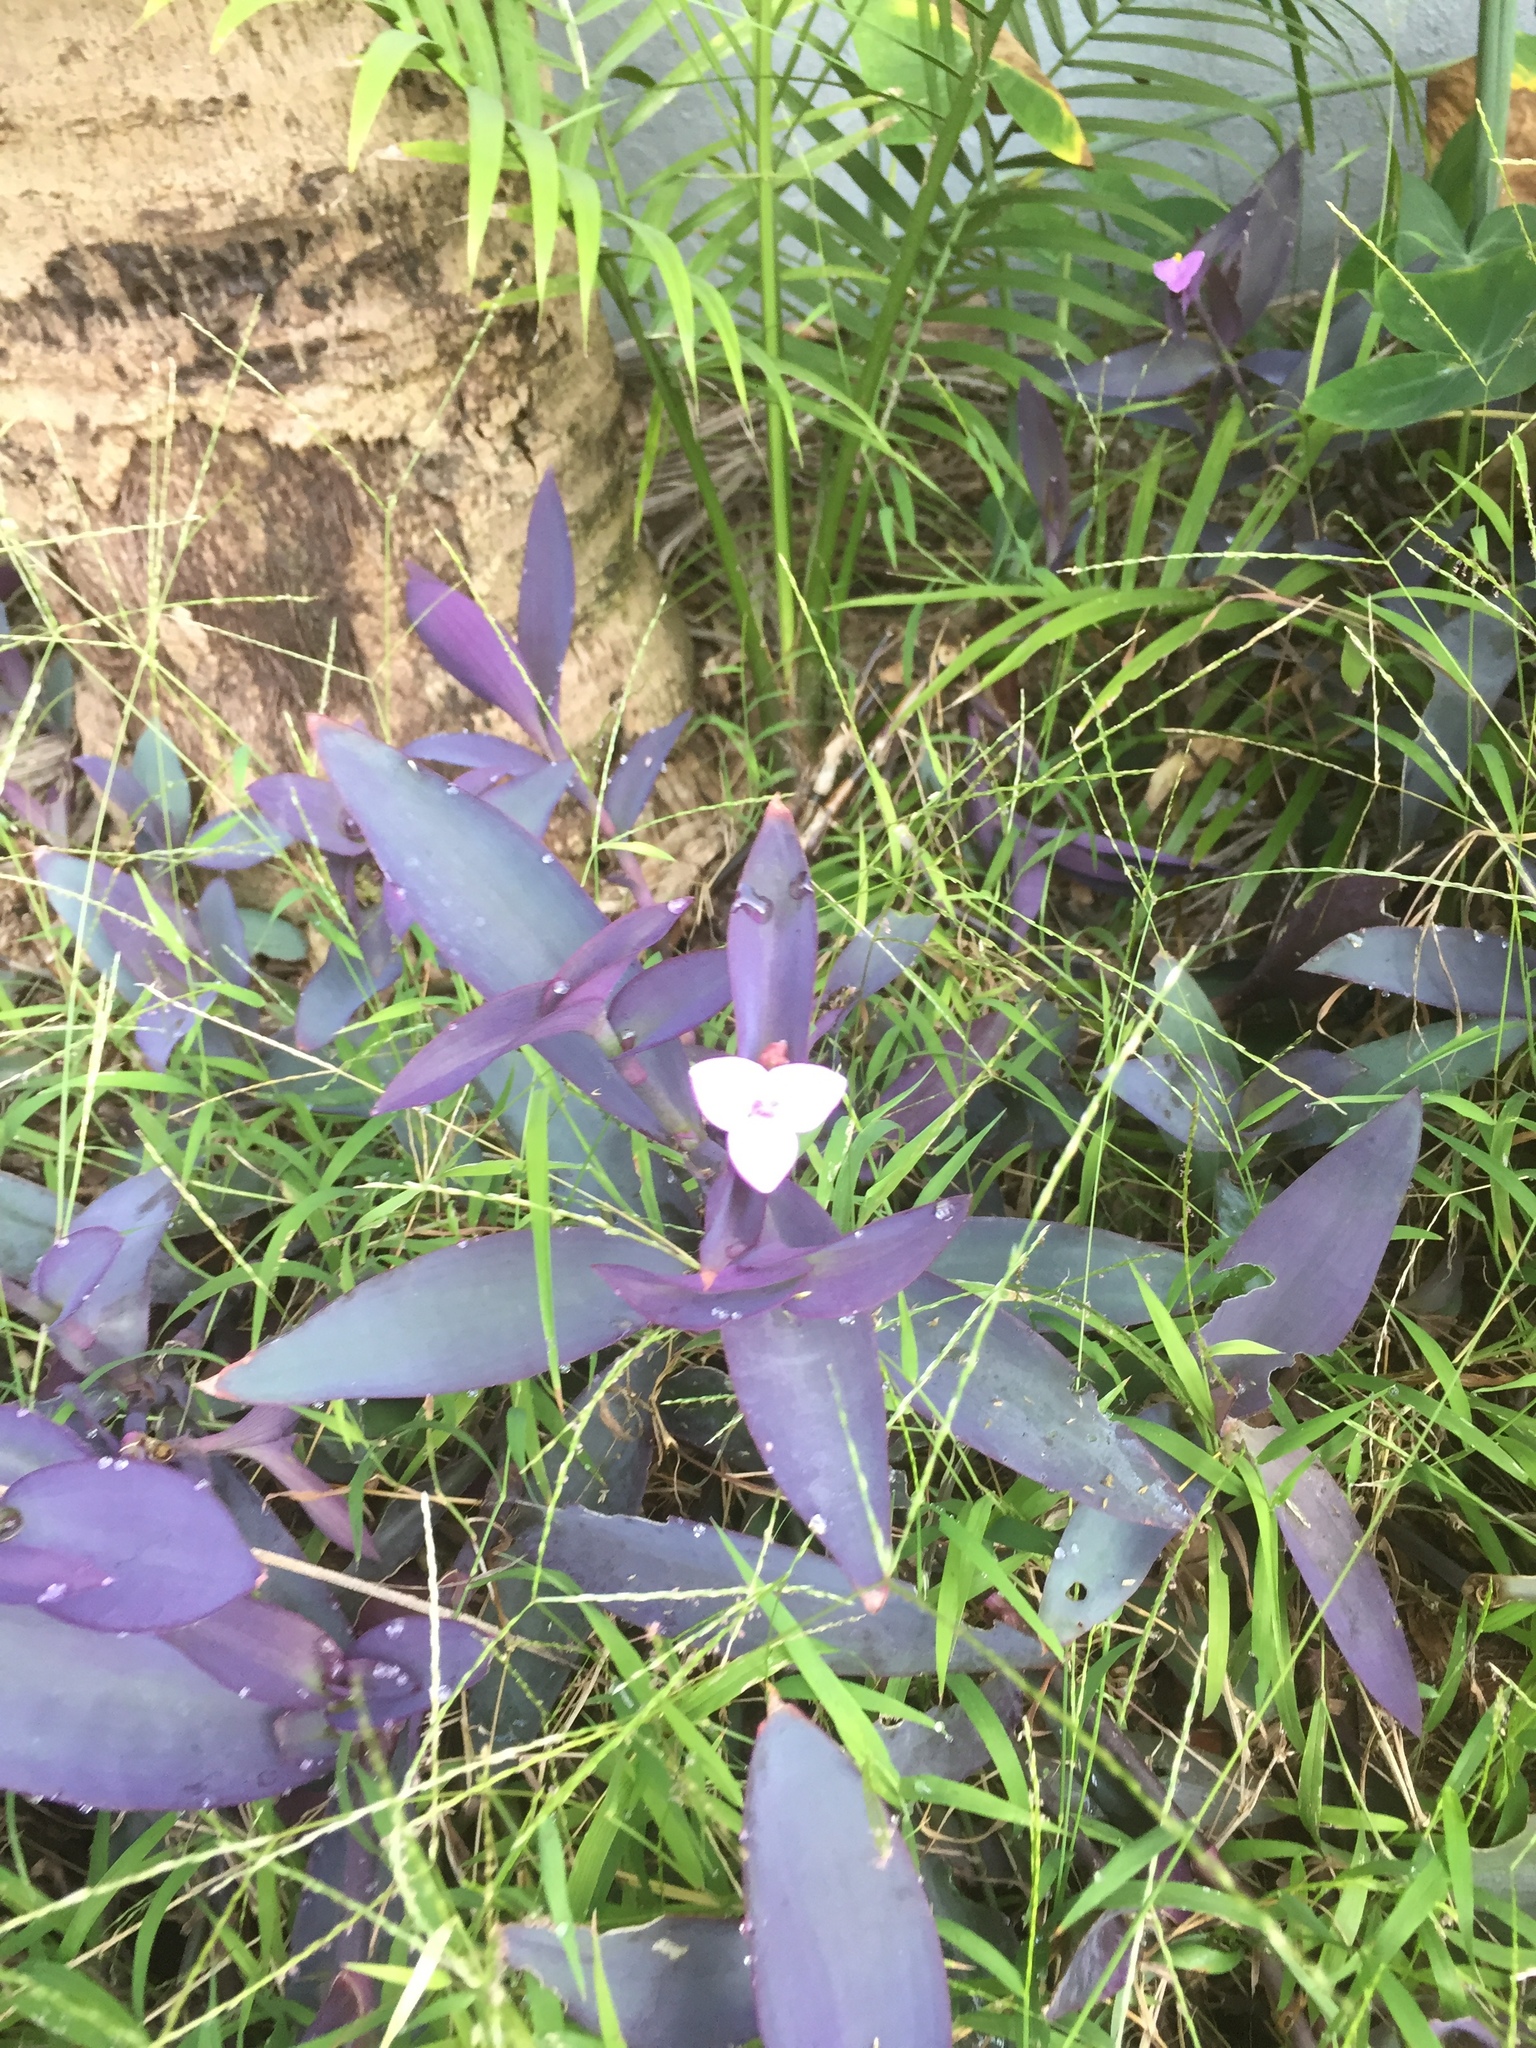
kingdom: Plantae
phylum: Tracheophyta
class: Liliopsida
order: Commelinales
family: Commelinaceae
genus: Tradescantia
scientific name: Tradescantia pallida
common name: Purpleheart
